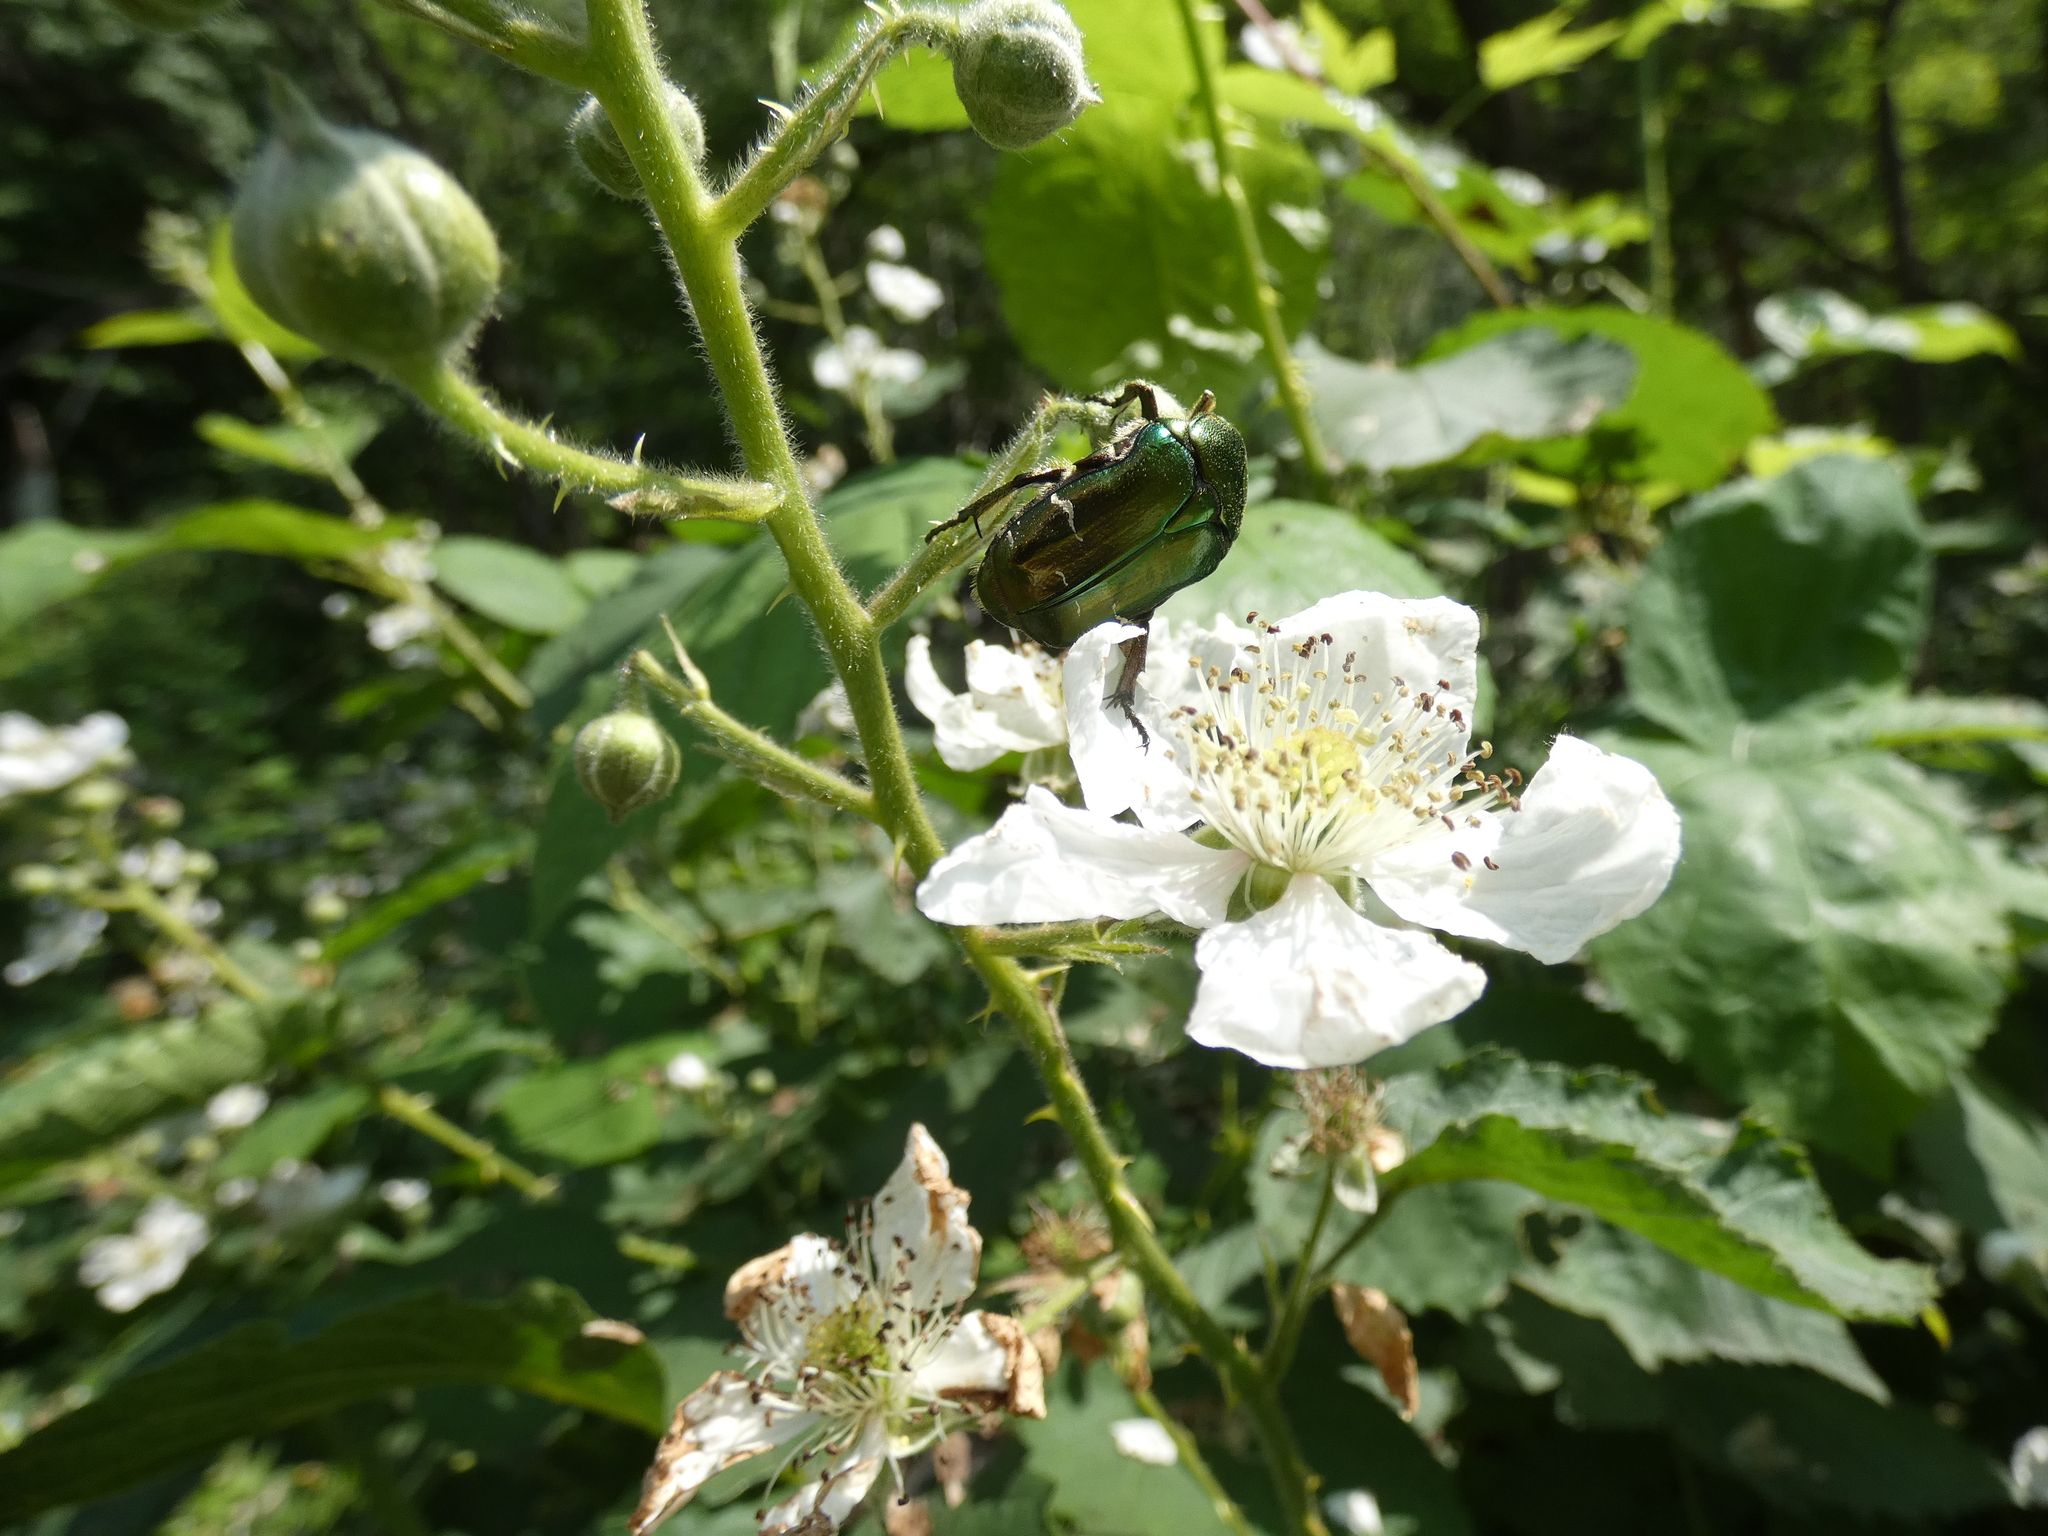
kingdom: Animalia
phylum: Arthropoda
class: Insecta
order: Coleoptera
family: Scarabaeidae
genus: Cetonia
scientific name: Cetonia aurata
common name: Rose chafer
